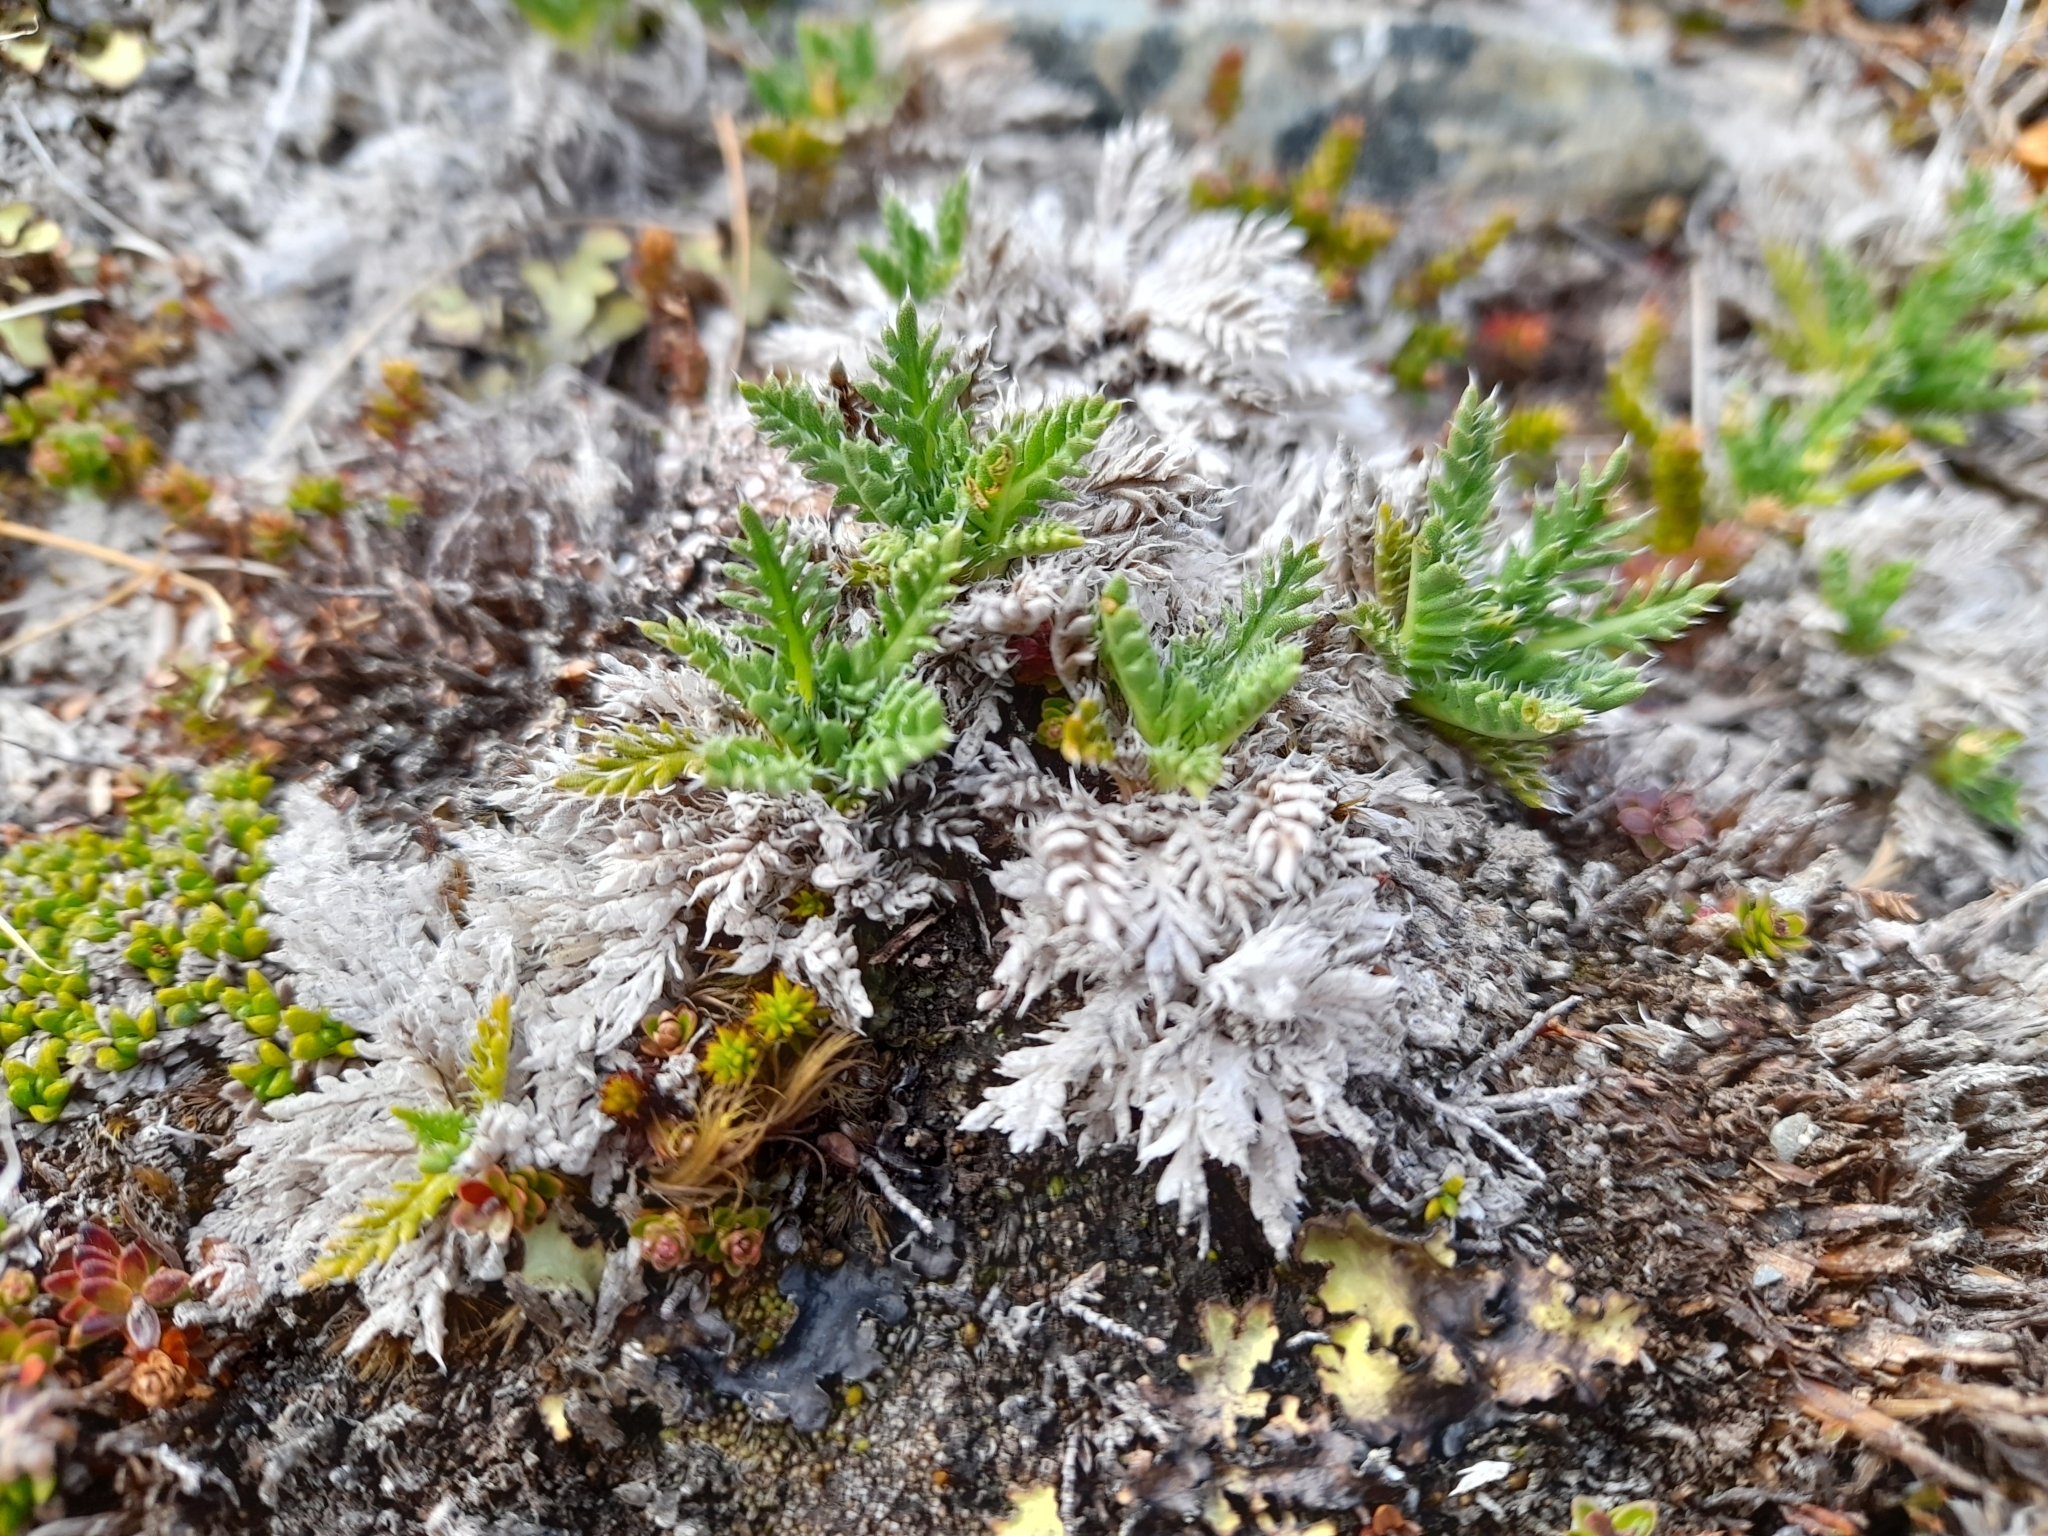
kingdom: Plantae
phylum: Tracheophyta
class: Magnoliopsida
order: Asterales
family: Asteraceae
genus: Perezia
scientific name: Perezia pilifera
